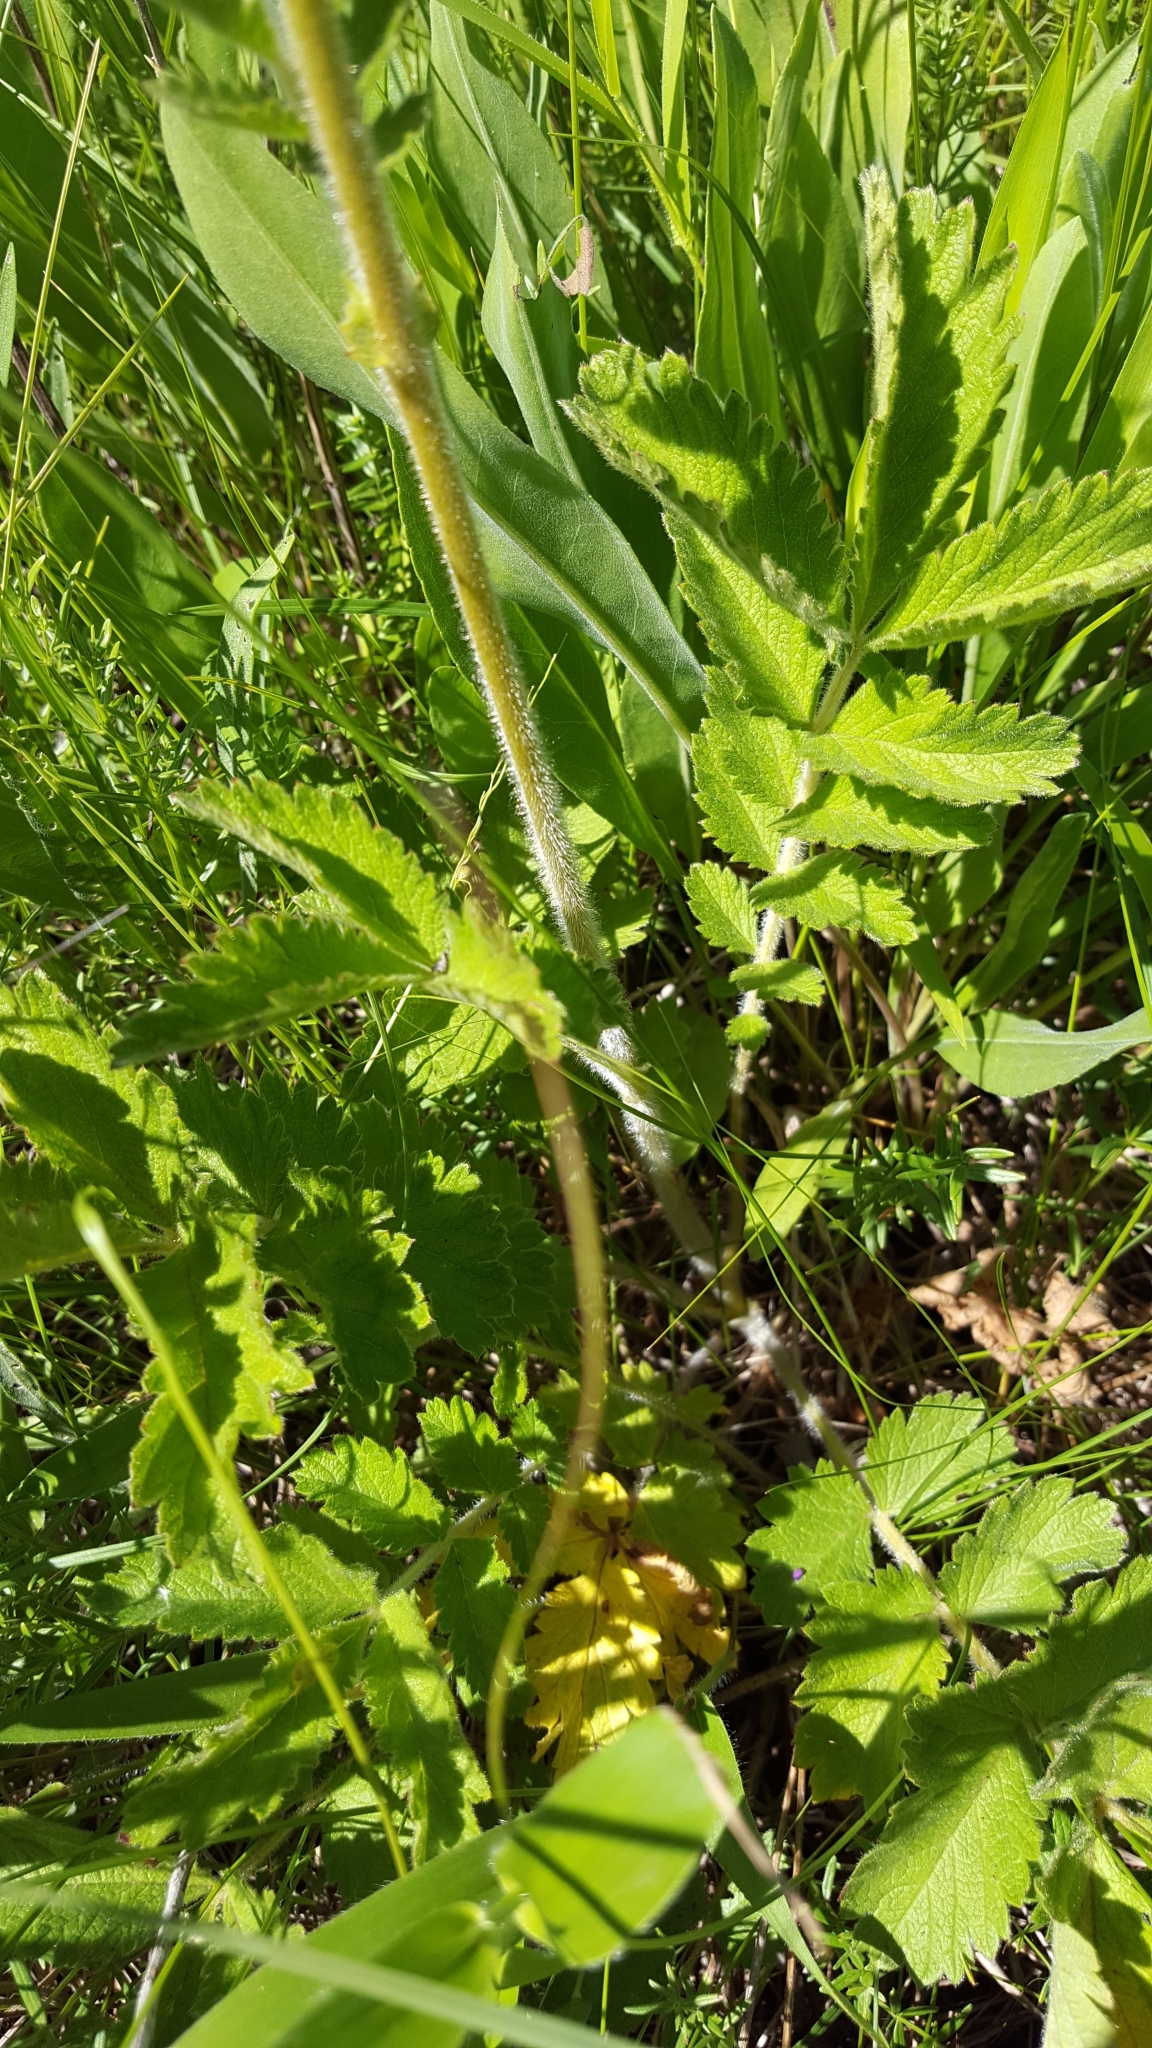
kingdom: Plantae
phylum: Tracheophyta
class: Magnoliopsida
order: Rosales
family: Rosaceae
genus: Drymocallis
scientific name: Drymocallis arguta
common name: Tall cinquefoil
